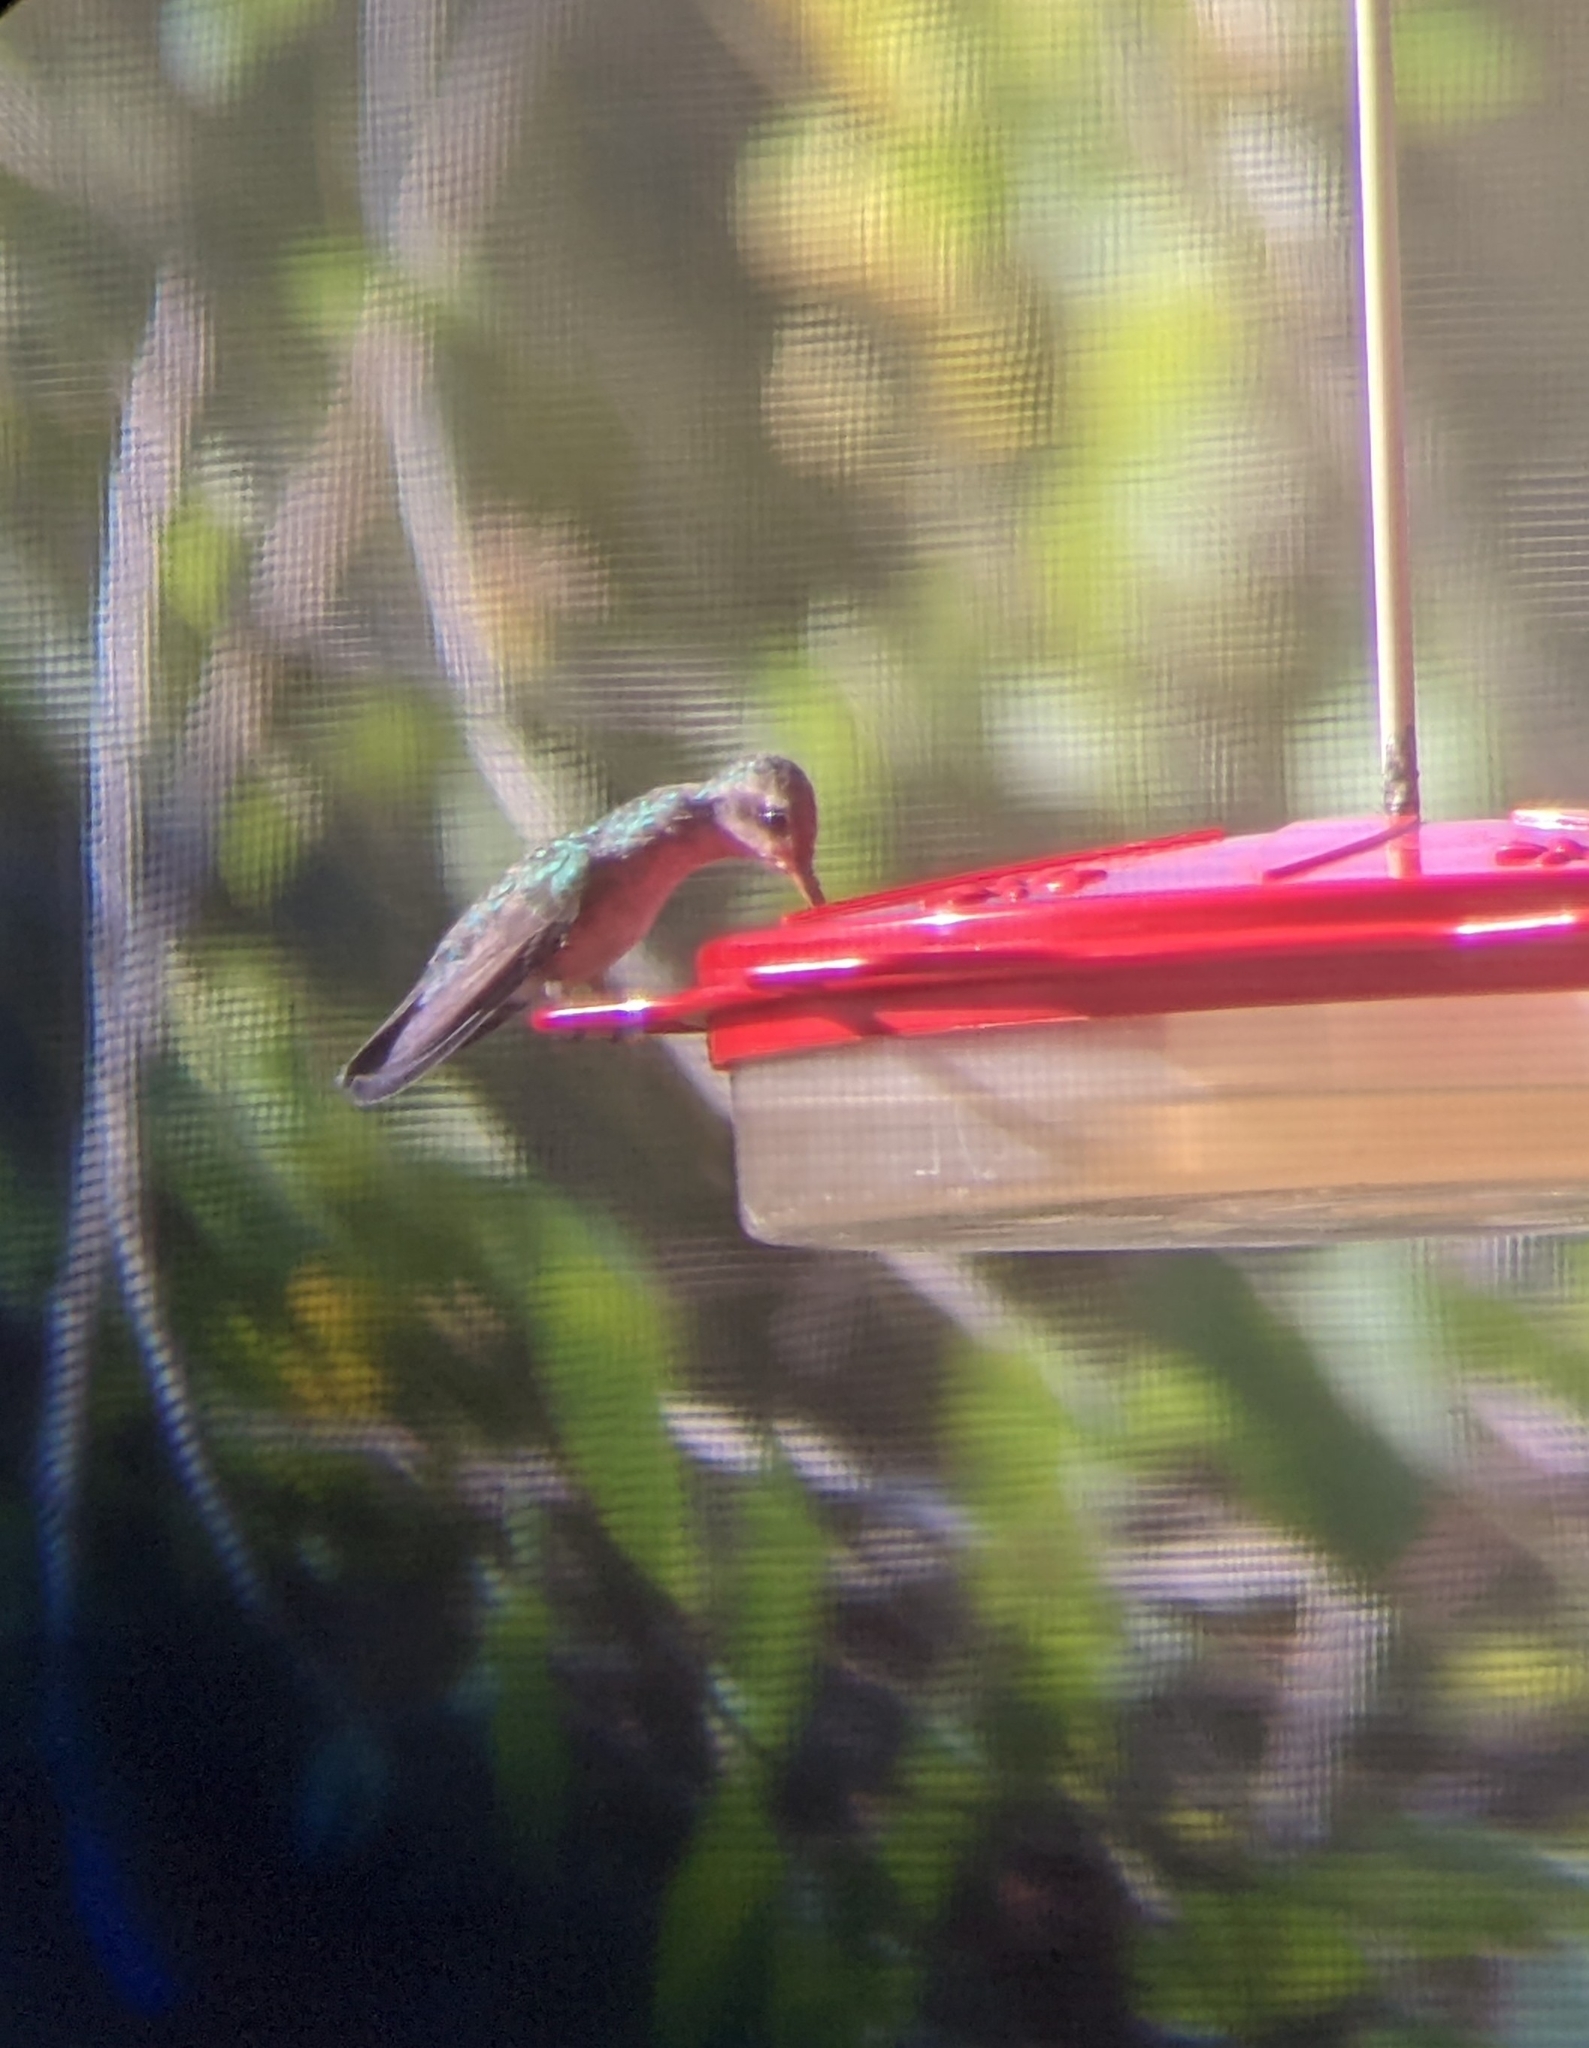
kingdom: Animalia
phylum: Chordata
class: Aves
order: Apodiformes
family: Trochilidae
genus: Cynanthus
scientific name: Cynanthus latirostris
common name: Broad-billed hummingbird
